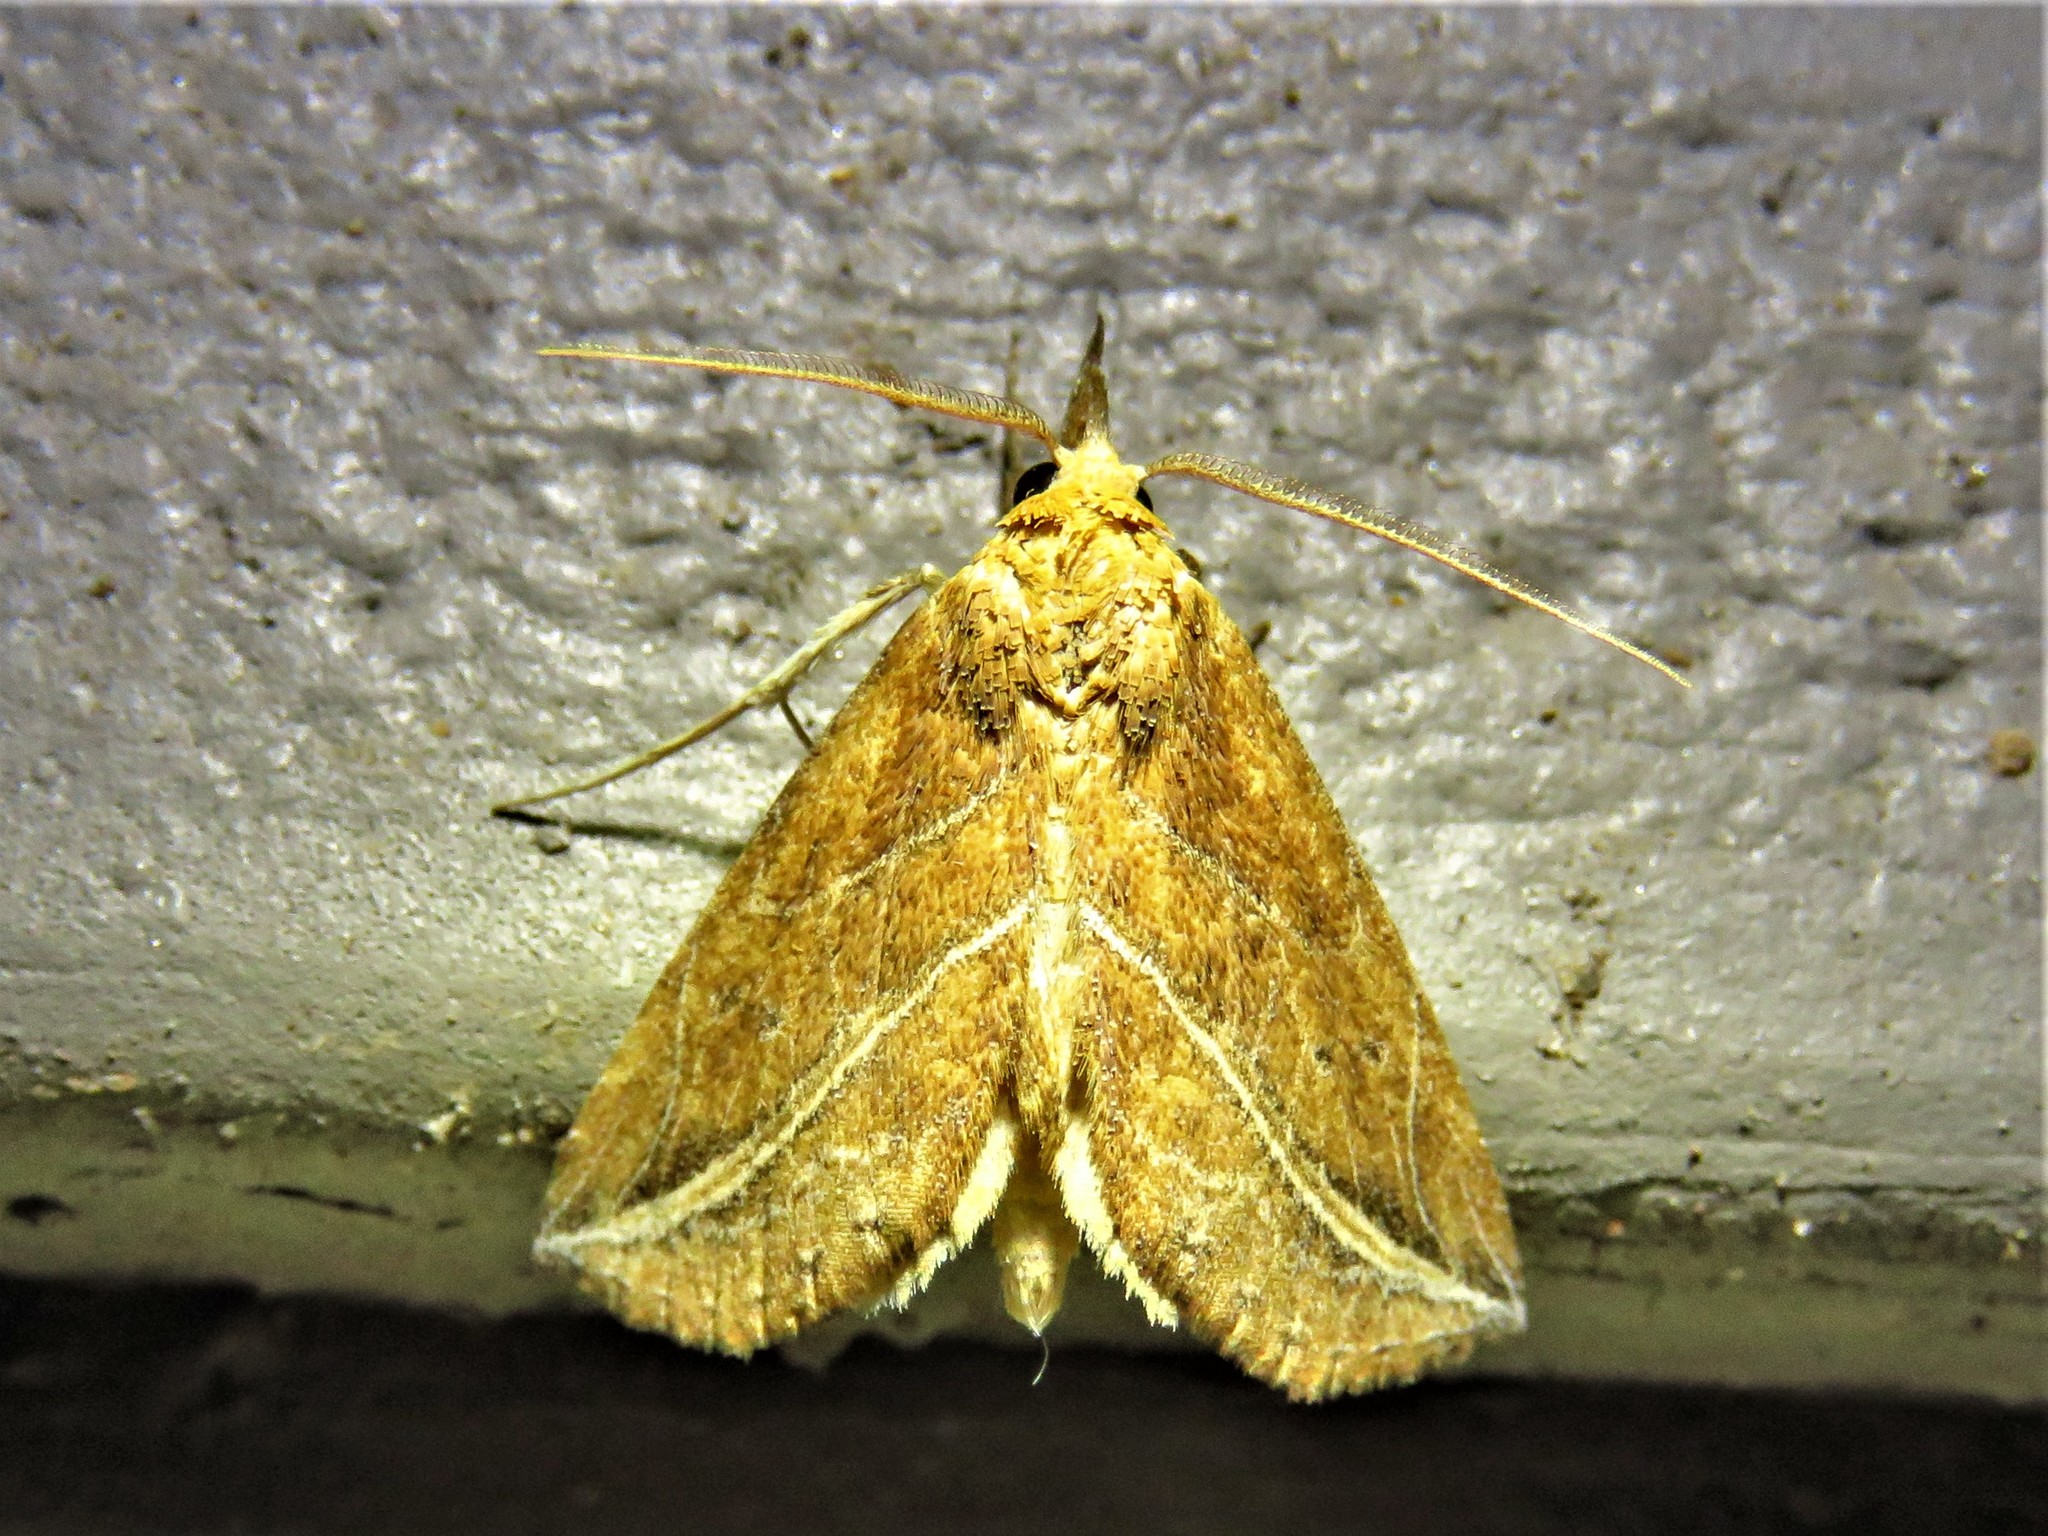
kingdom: Animalia
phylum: Arthropoda
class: Insecta
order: Lepidoptera
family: Erebidae
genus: Phyprosopus
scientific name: Phyprosopus callitrichoides
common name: Curved-lined owlet
